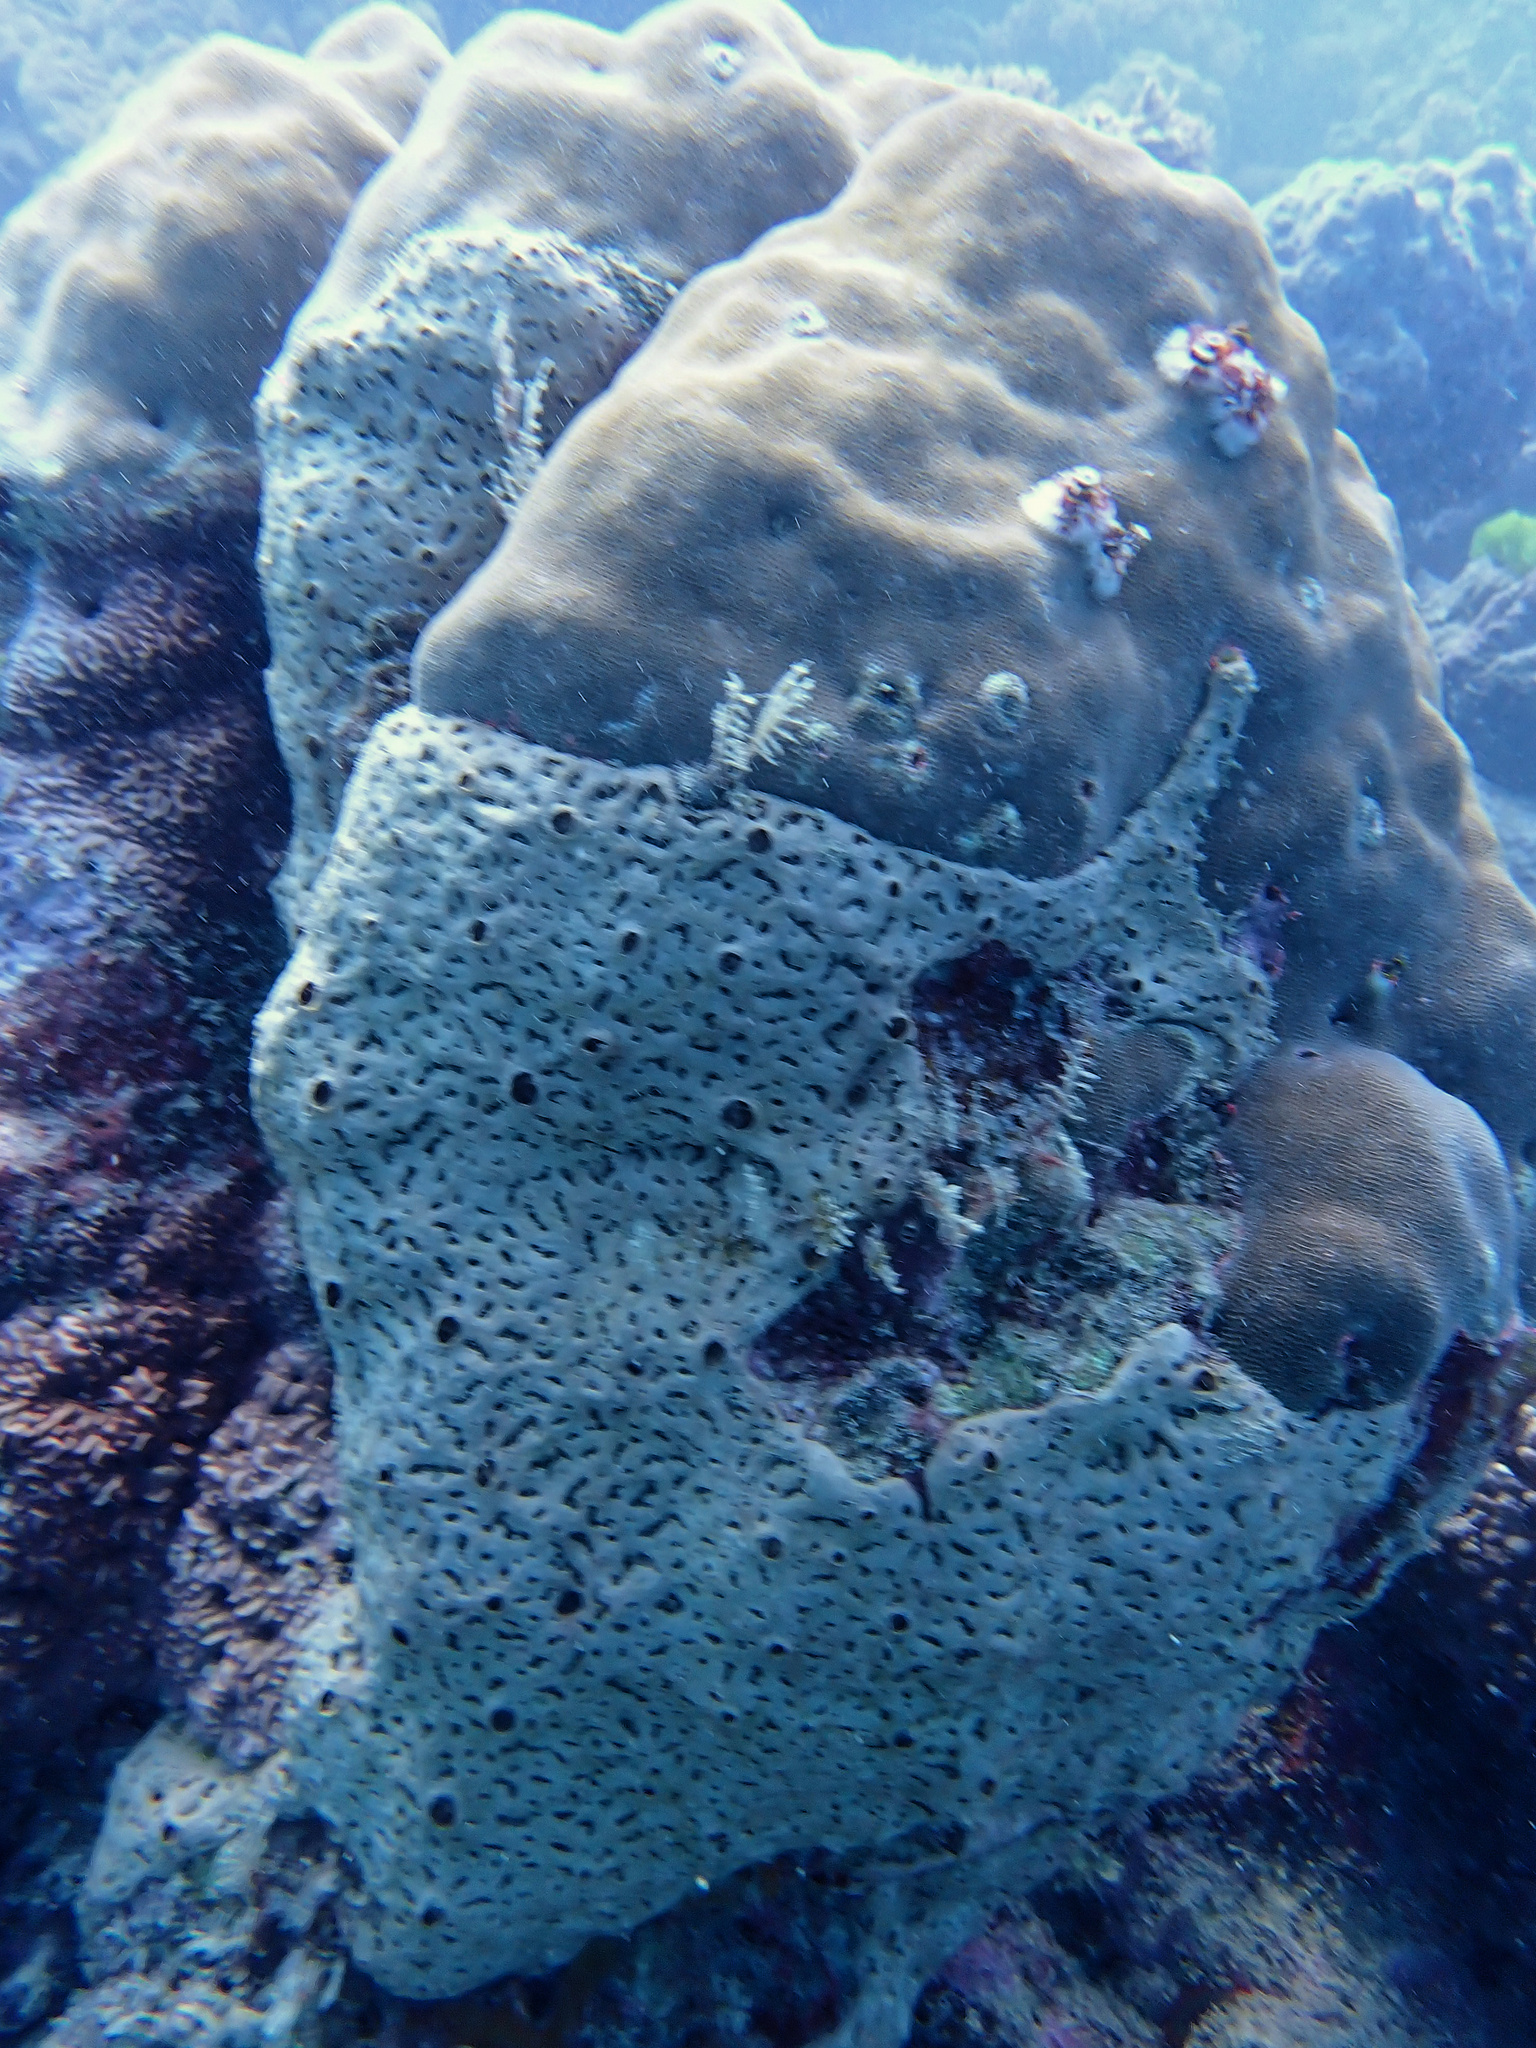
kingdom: Animalia
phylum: Porifera
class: Demospongiae
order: Tethyida
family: Hemiasterellidae
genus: Liosina
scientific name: Liosina paradoxa
